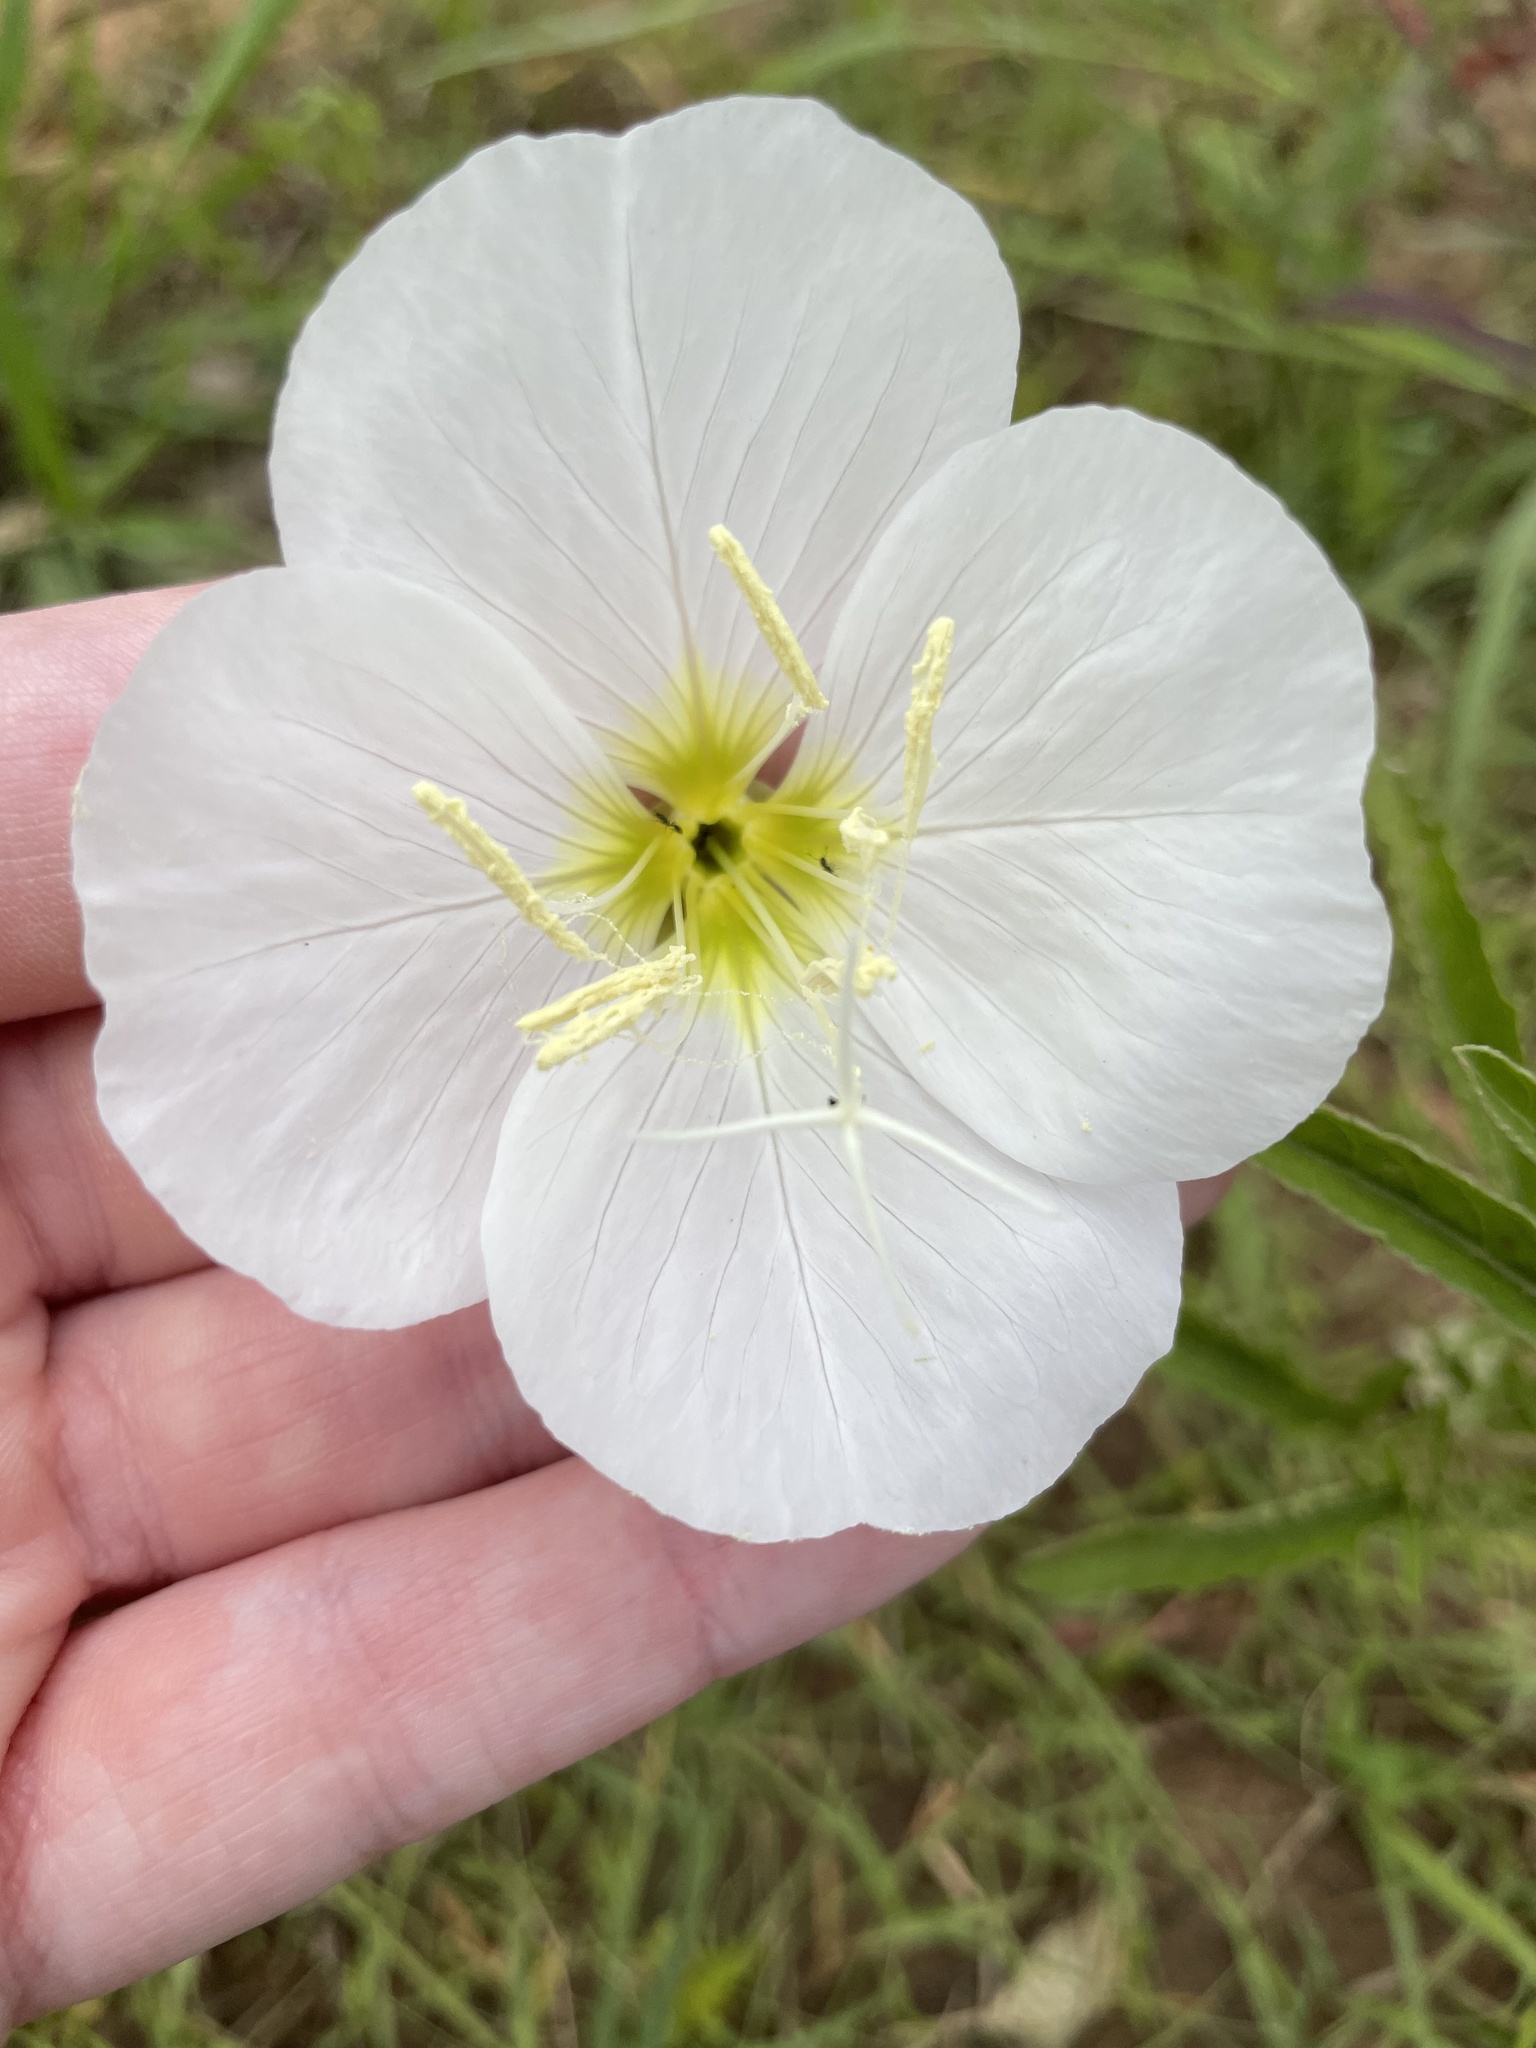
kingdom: Plantae
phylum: Tracheophyta
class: Magnoliopsida
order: Myrtales
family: Onagraceae
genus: Oenothera
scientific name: Oenothera speciosa
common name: White evening-primrose
